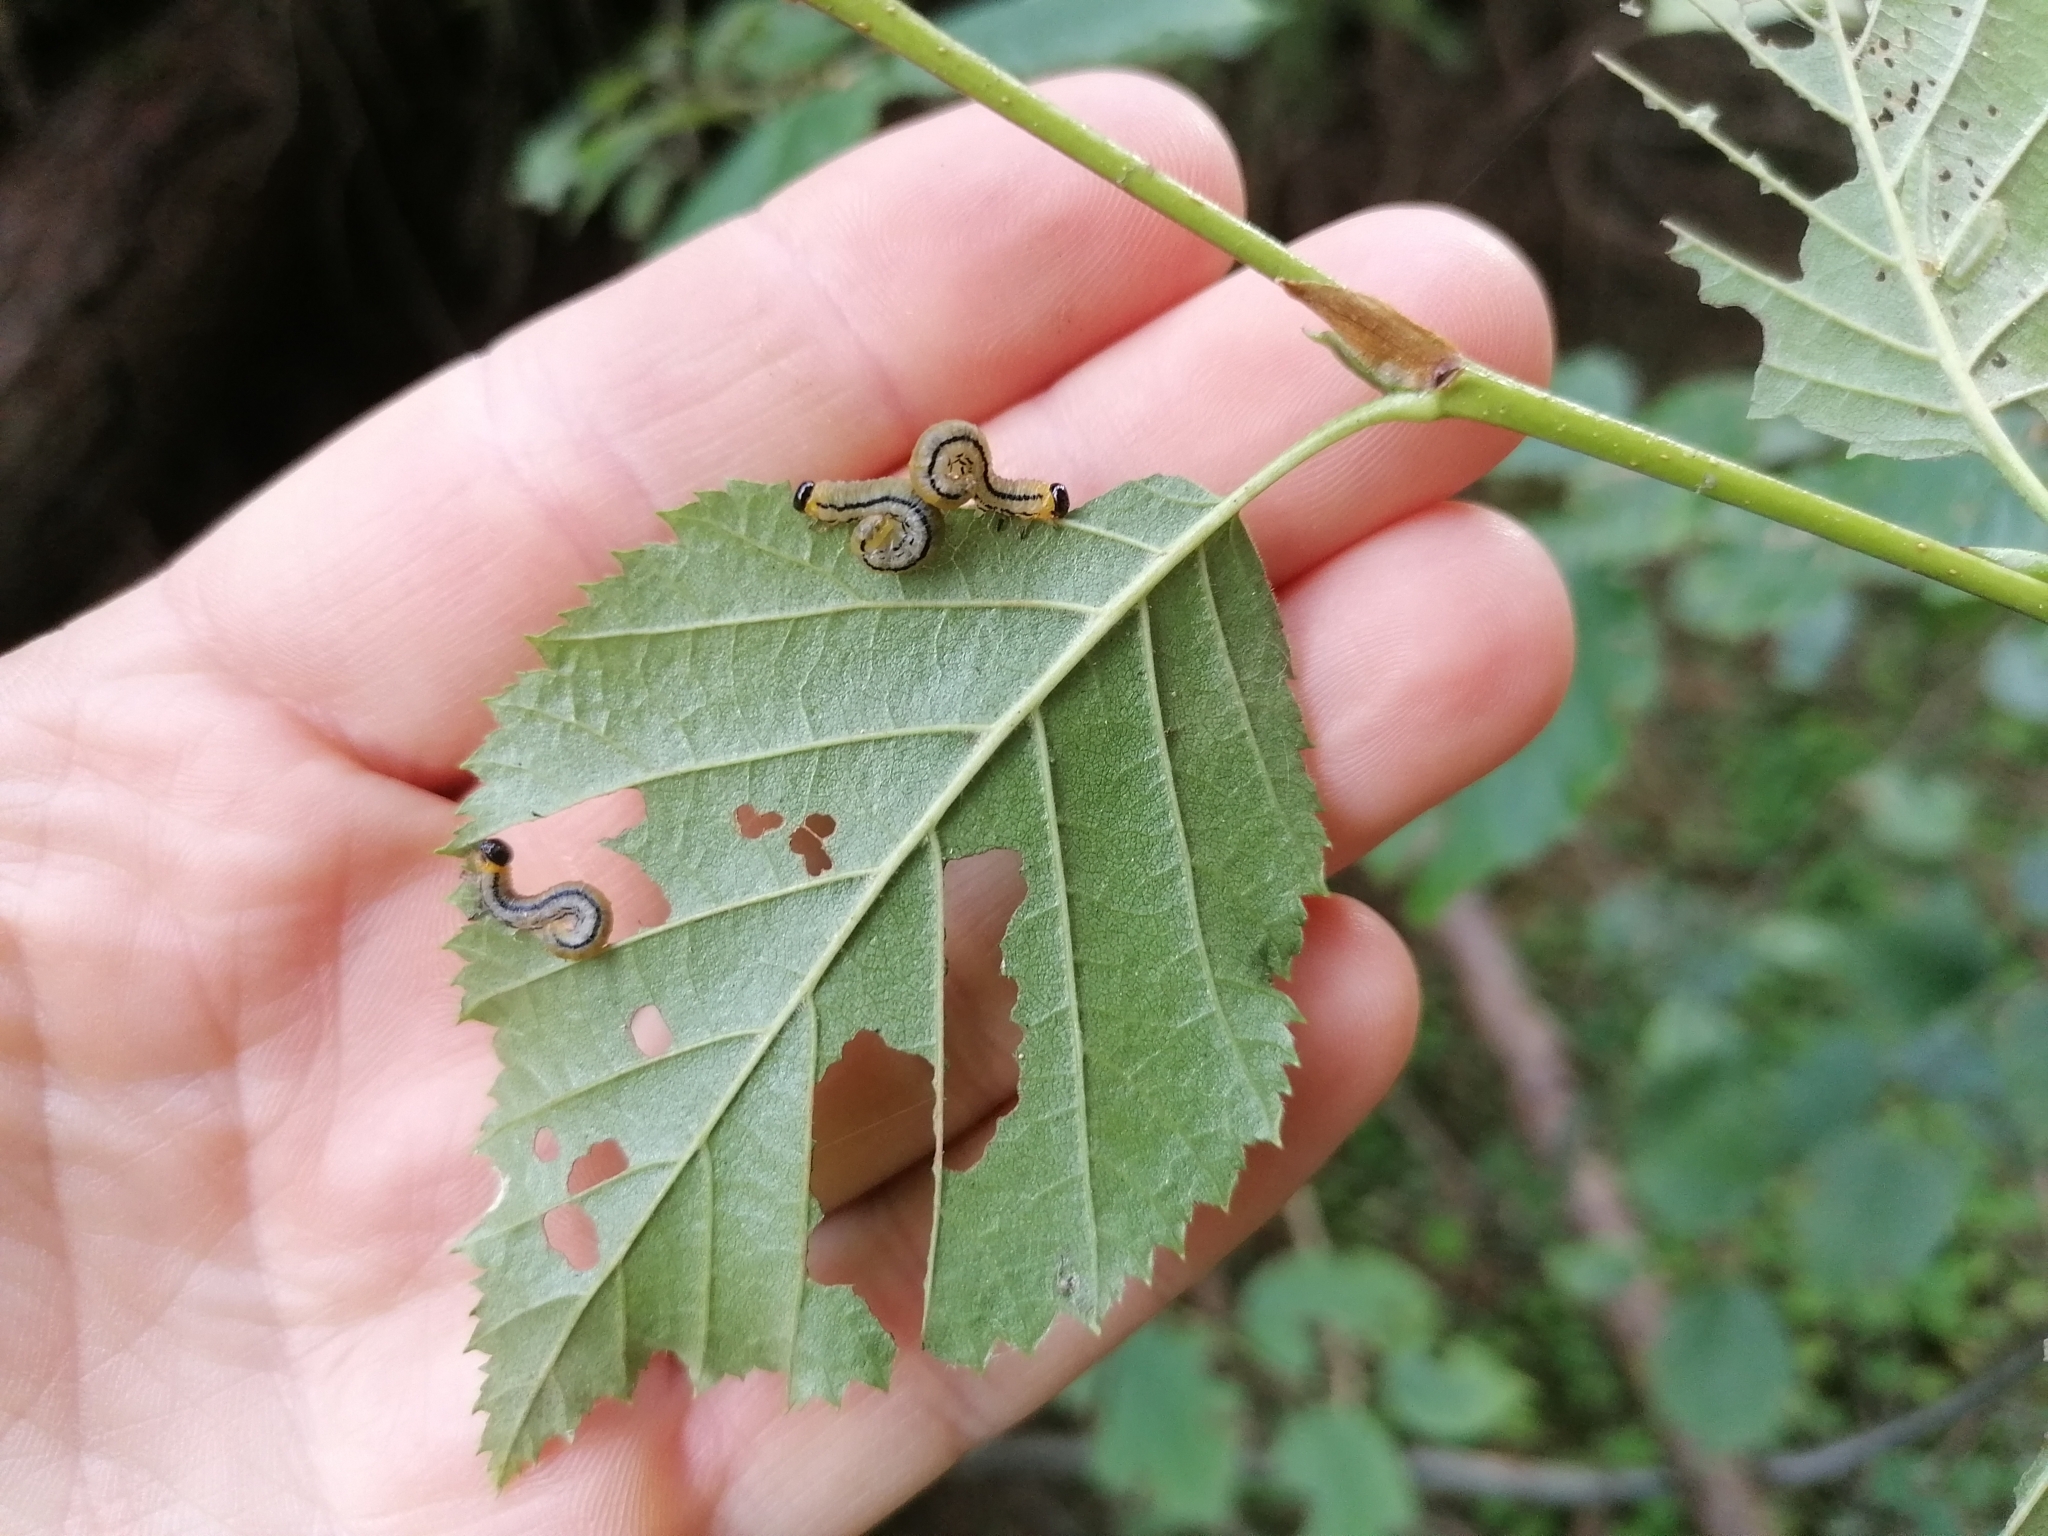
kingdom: Animalia
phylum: Arthropoda
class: Insecta
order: Hymenoptera
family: Tenthredinidae
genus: Hemichroa
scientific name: Hemichroa crocea
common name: Striped alder sawfly
